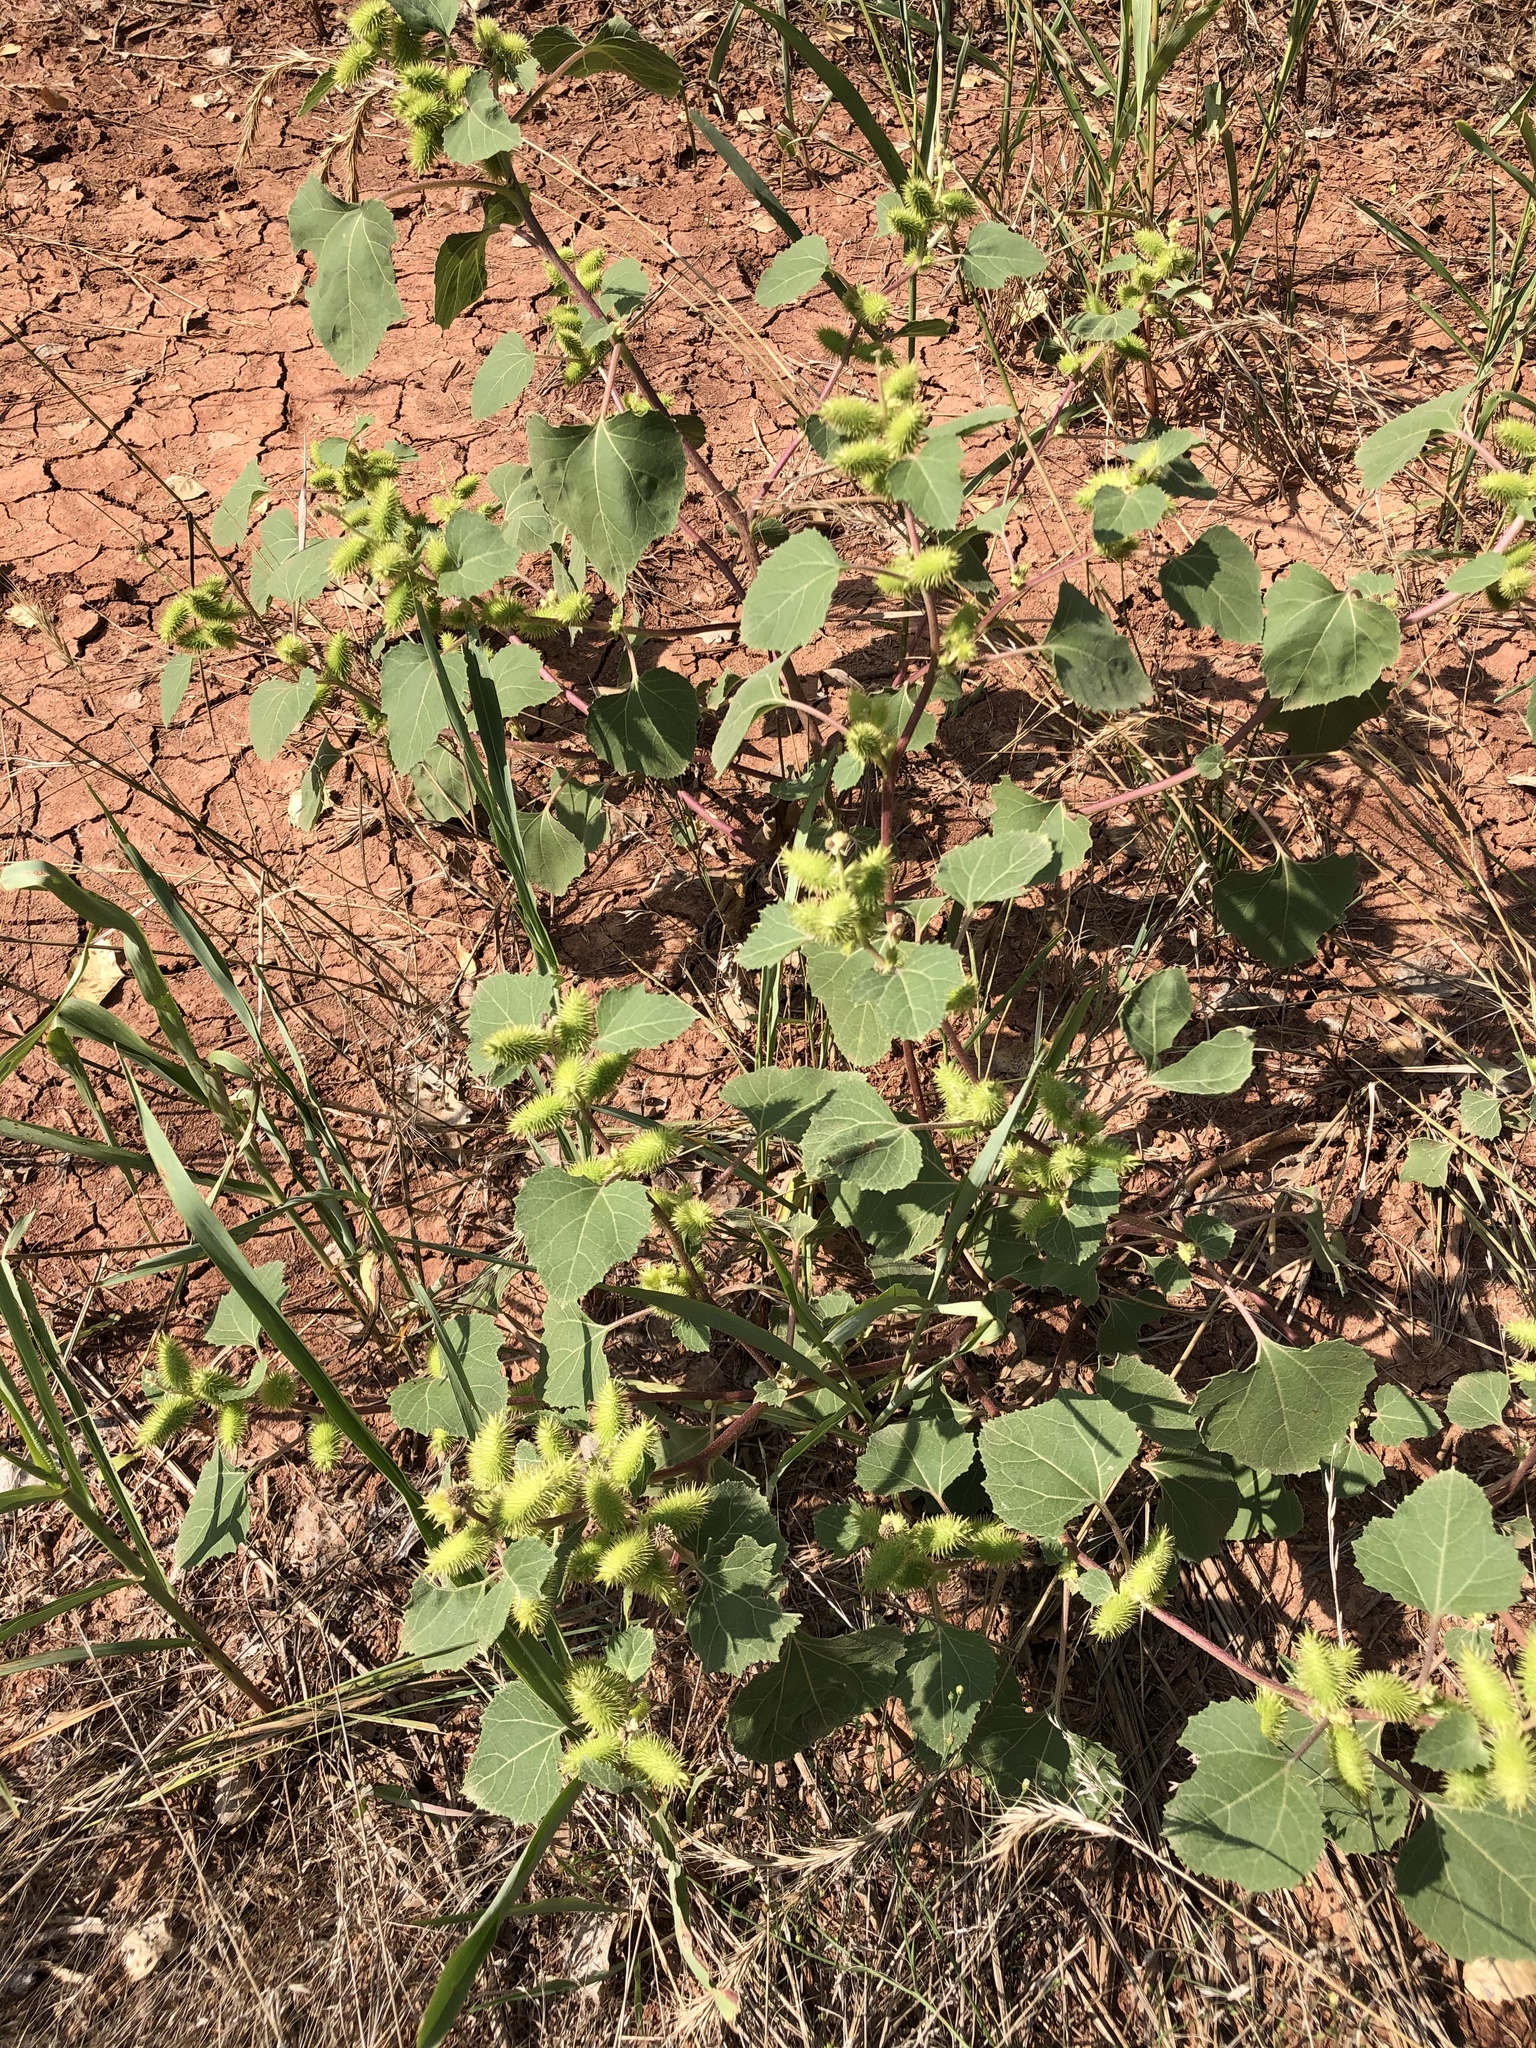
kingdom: Plantae
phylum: Tracheophyta
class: Magnoliopsida
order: Asterales
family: Asteraceae
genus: Xanthium
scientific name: Xanthium strumarium
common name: Rough cocklebur
